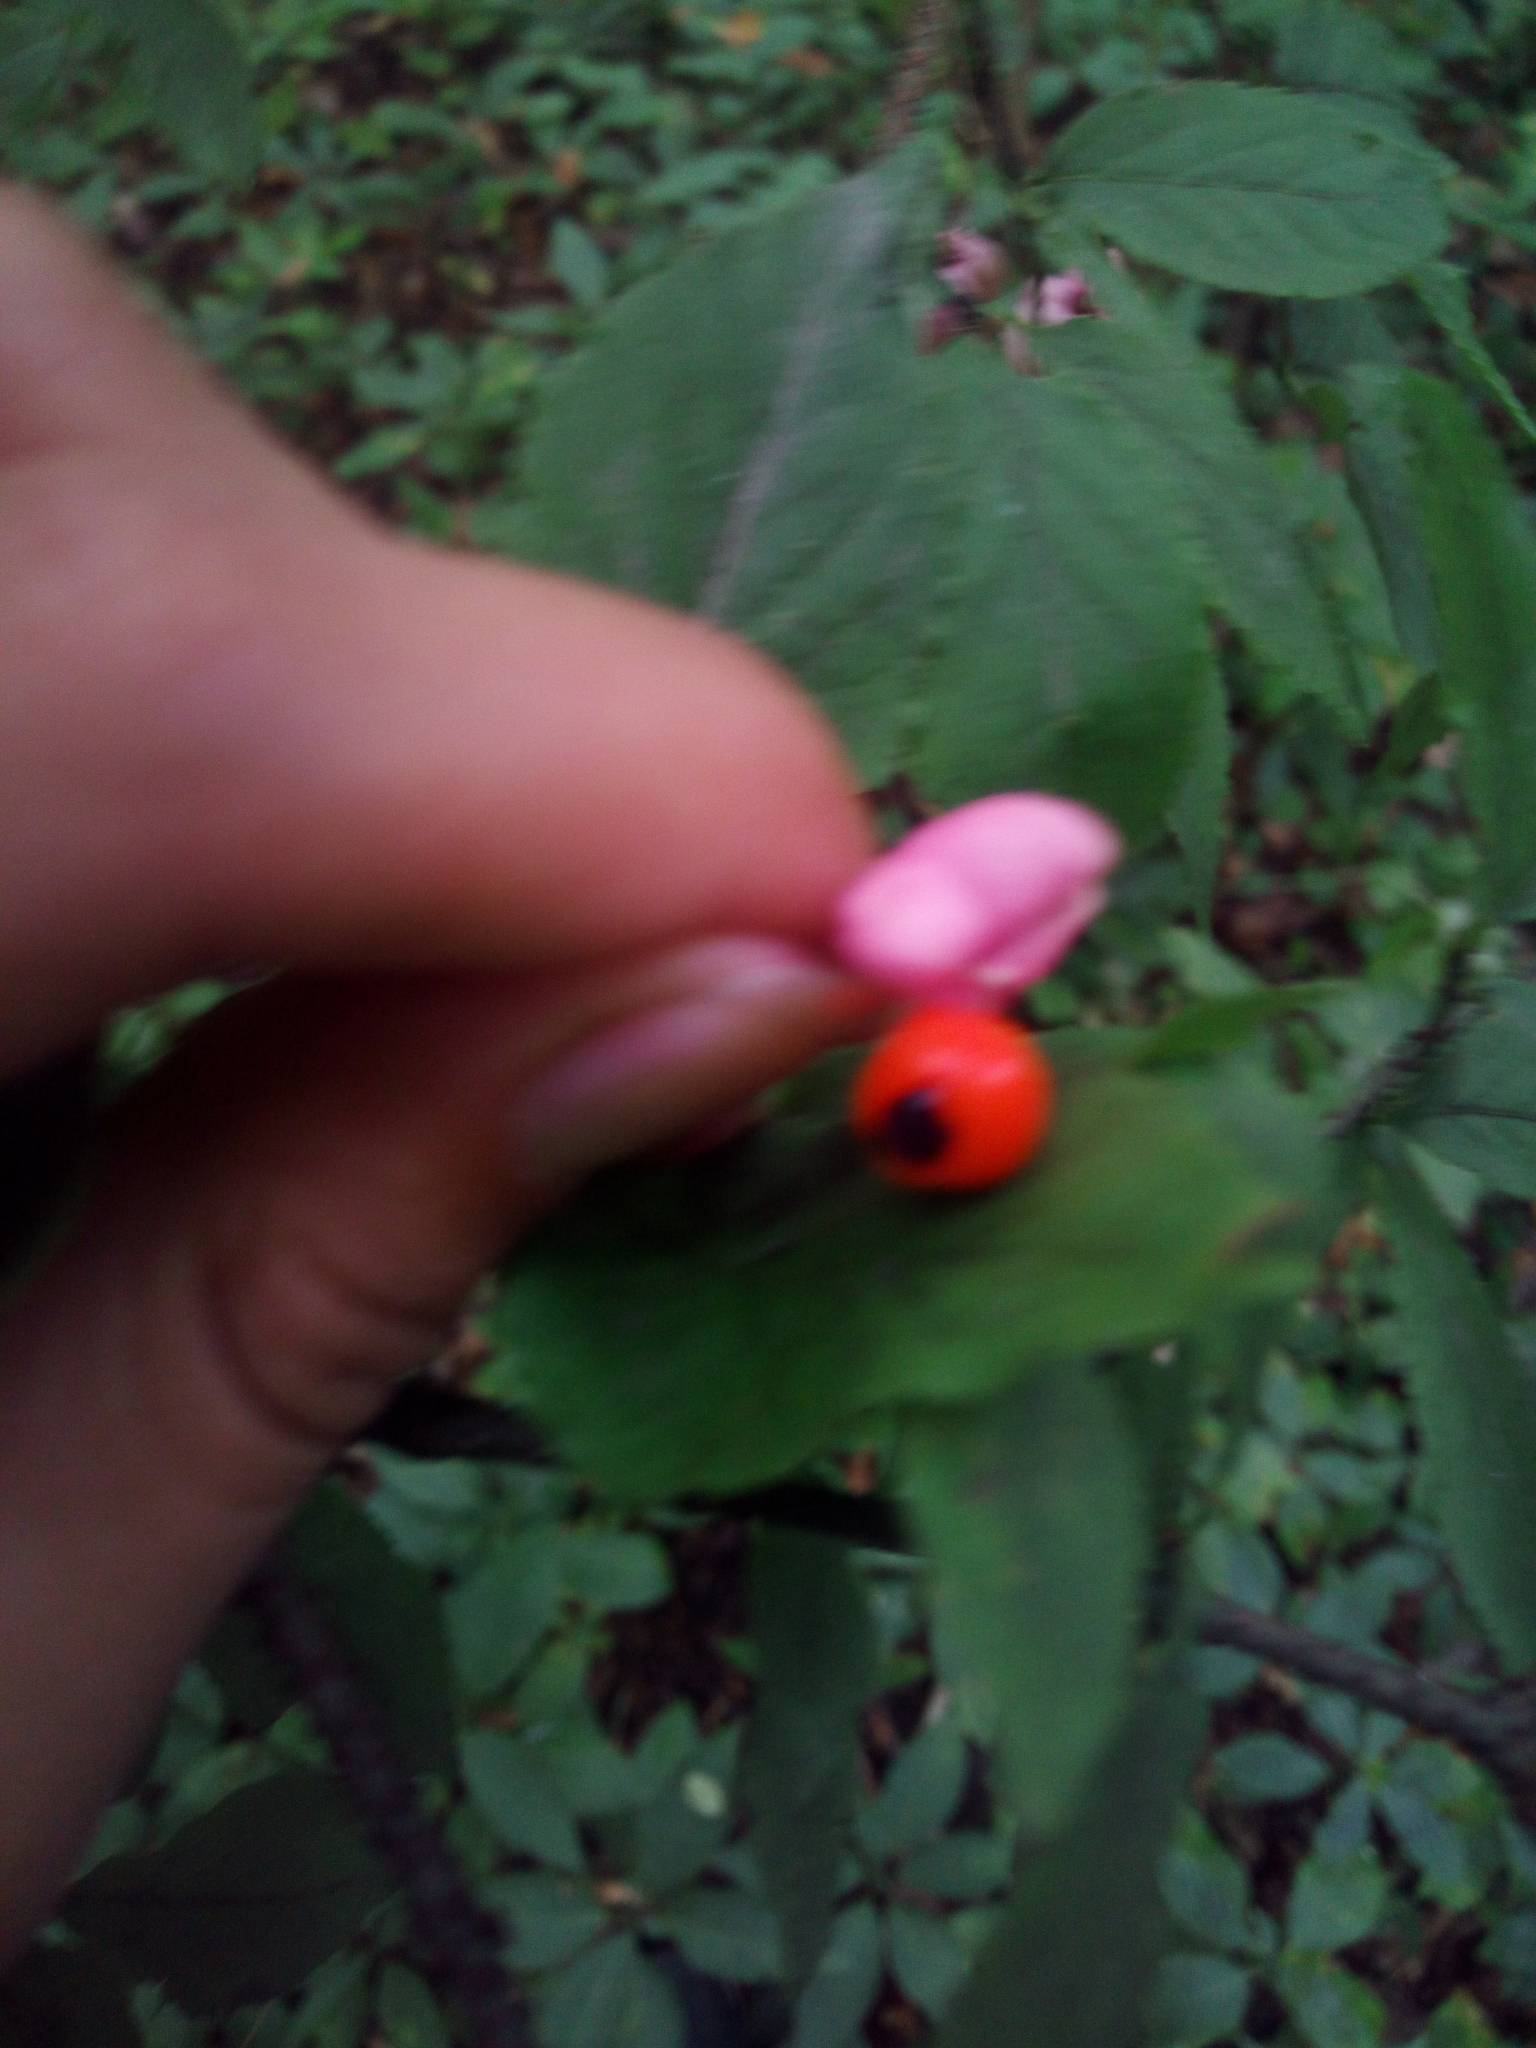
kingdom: Plantae
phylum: Tracheophyta
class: Magnoliopsida
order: Celastrales
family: Celastraceae
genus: Euonymus
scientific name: Euonymus verrucosus
